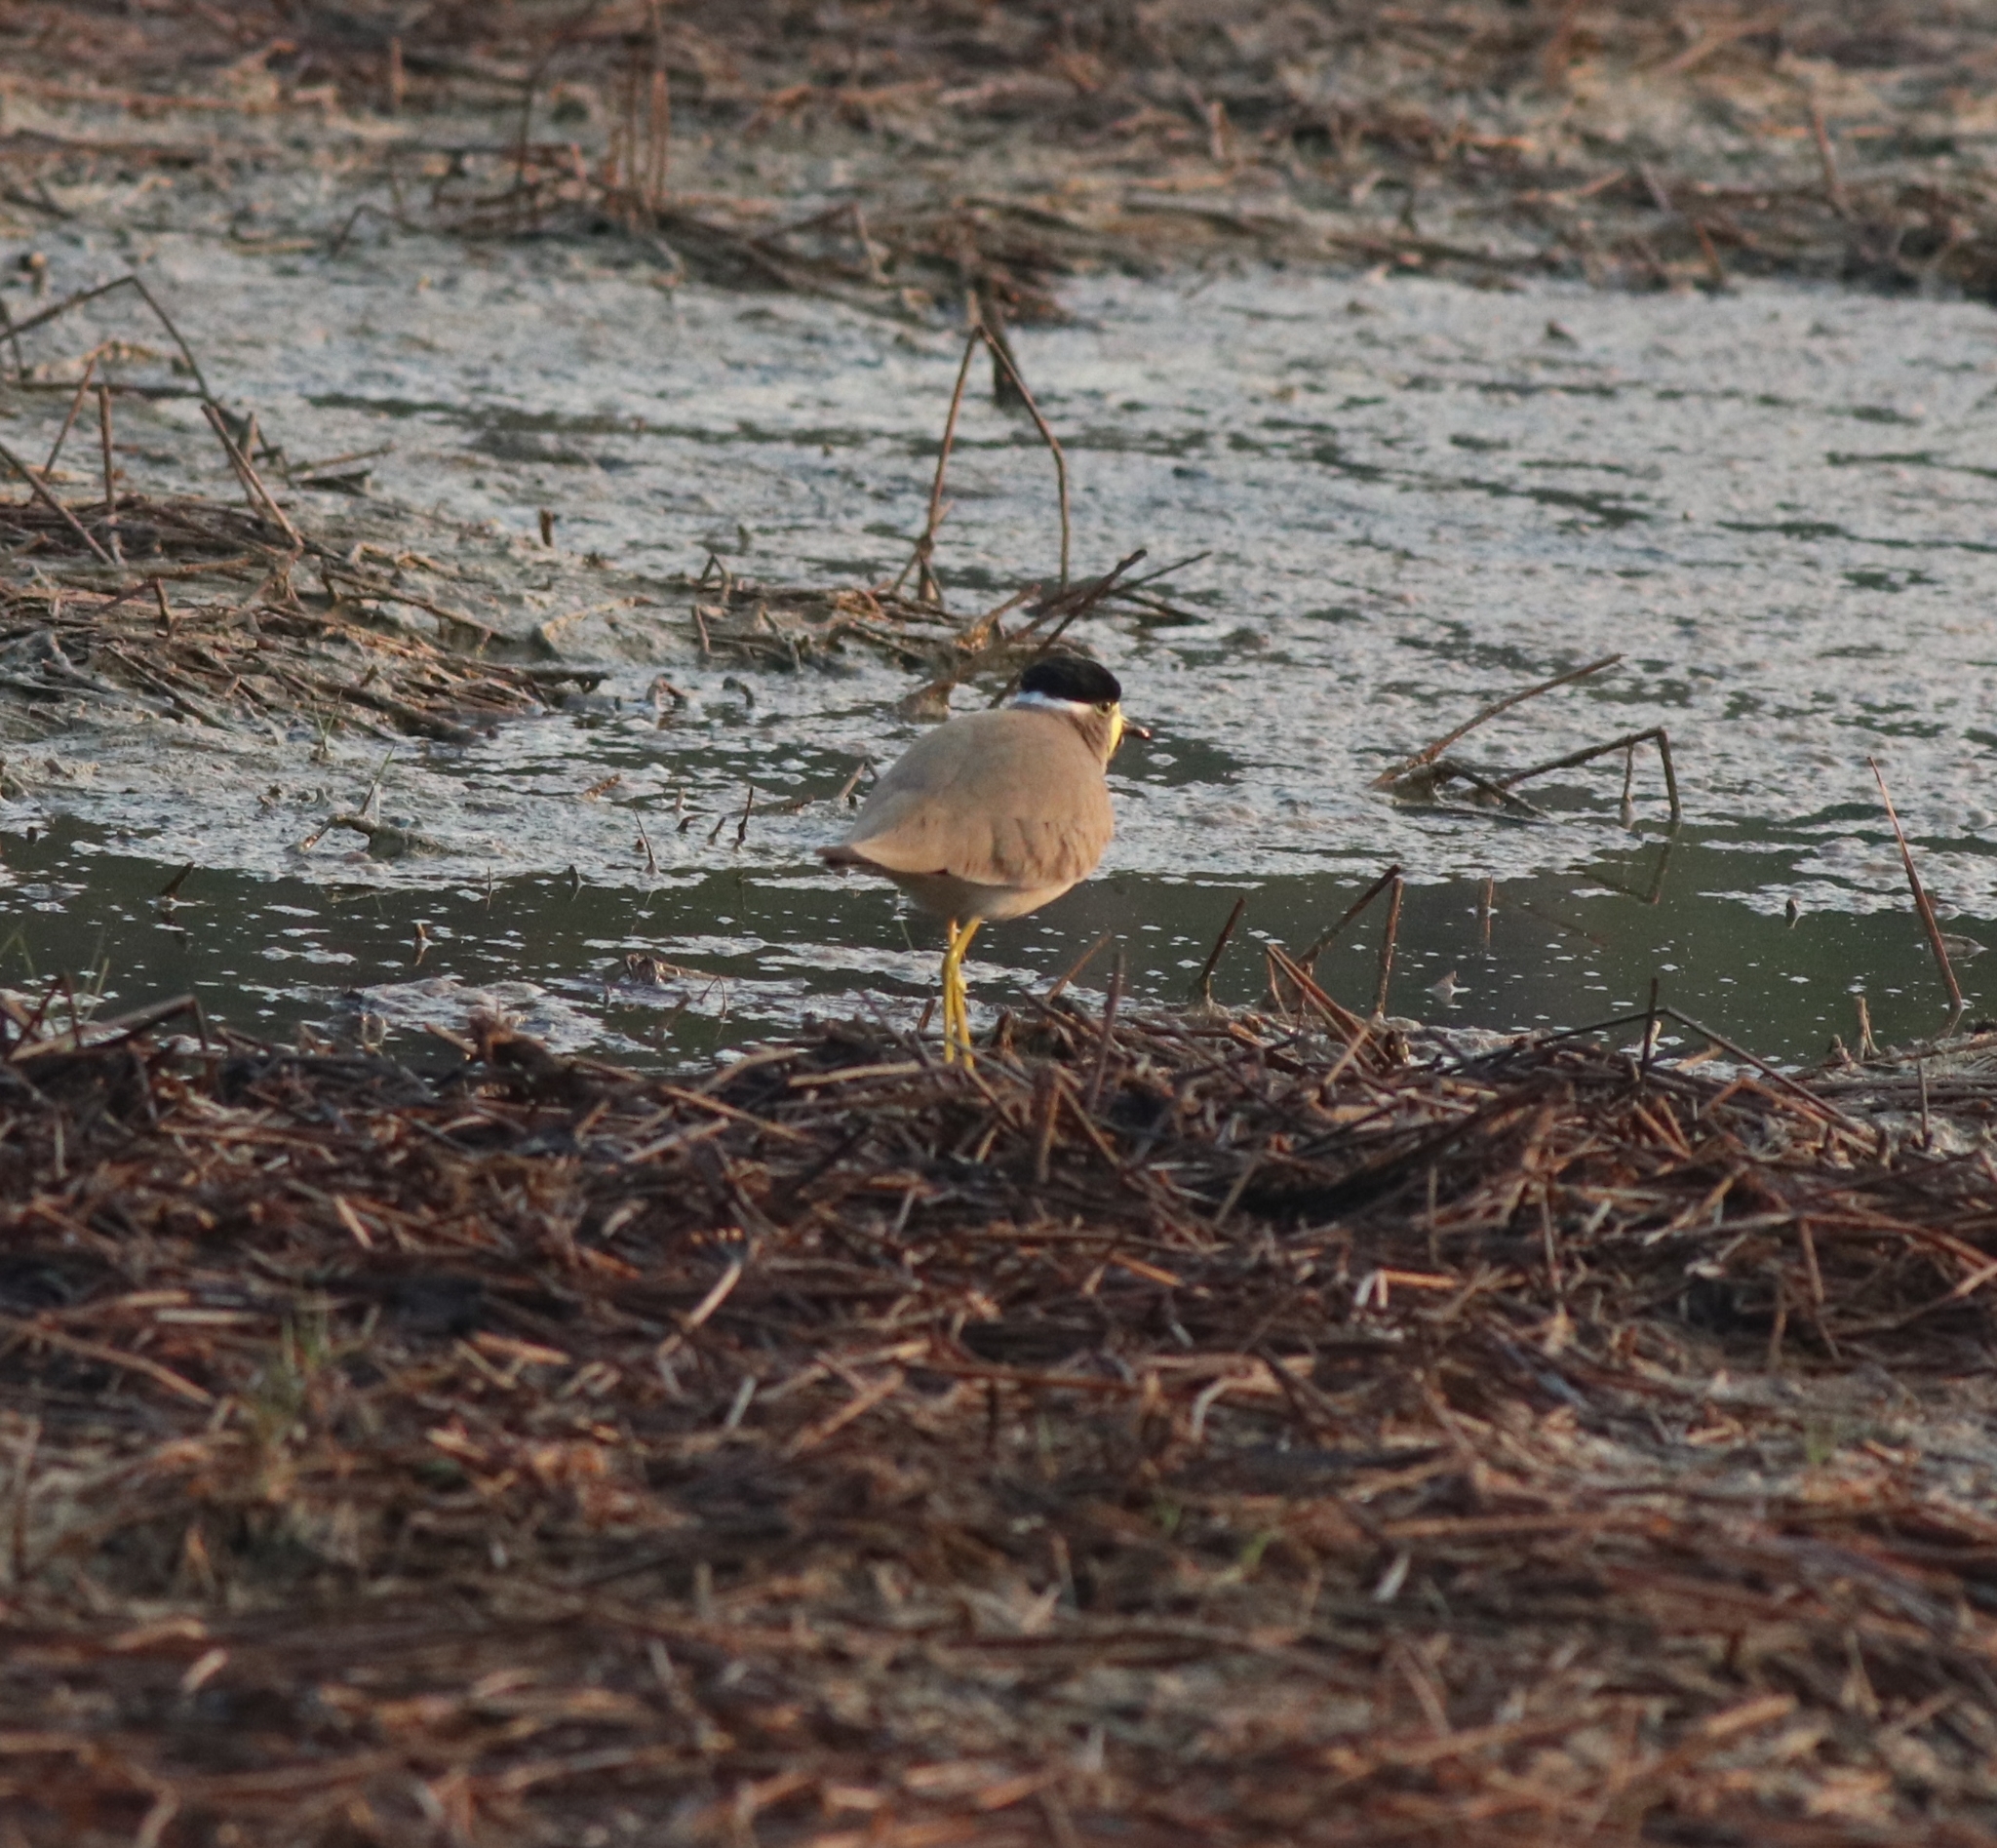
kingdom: Animalia
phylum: Chordata
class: Aves
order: Charadriiformes
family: Charadriidae
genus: Vanellus
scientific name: Vanellus malabaricus
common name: Yellow-wattled lapwing
